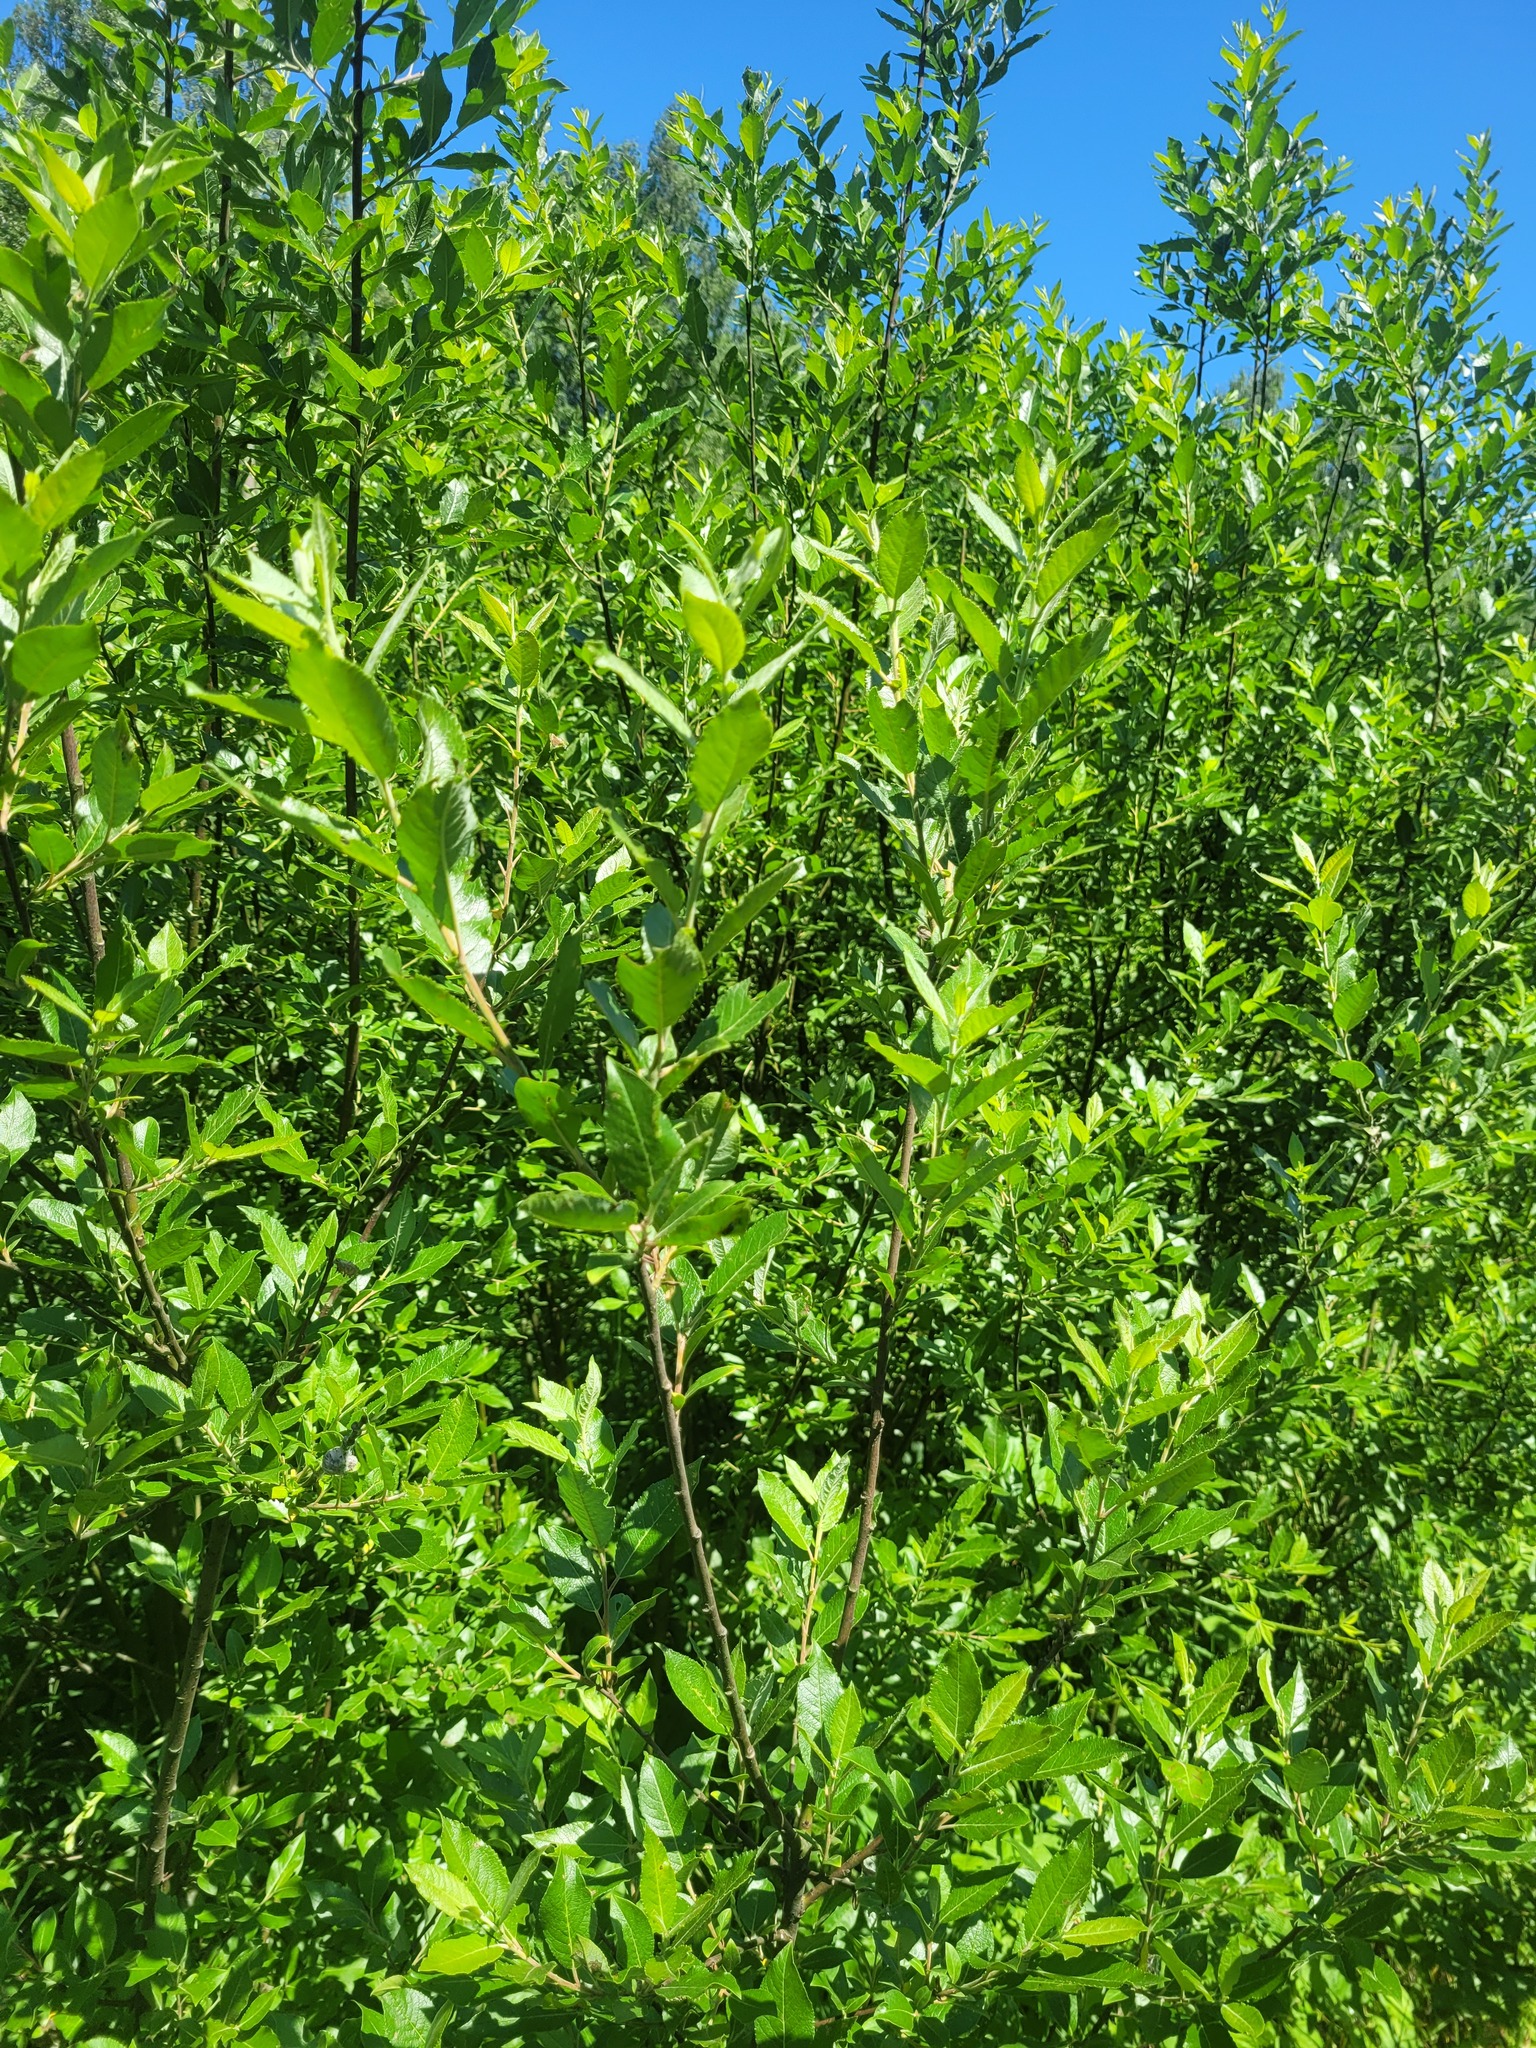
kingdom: Plantae
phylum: Tracheophyta
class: Magnoliopsida
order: Malpighiales
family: Salicaceae
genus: Salix
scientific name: Salix myrsinifolia
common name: Dark-leaved willow
